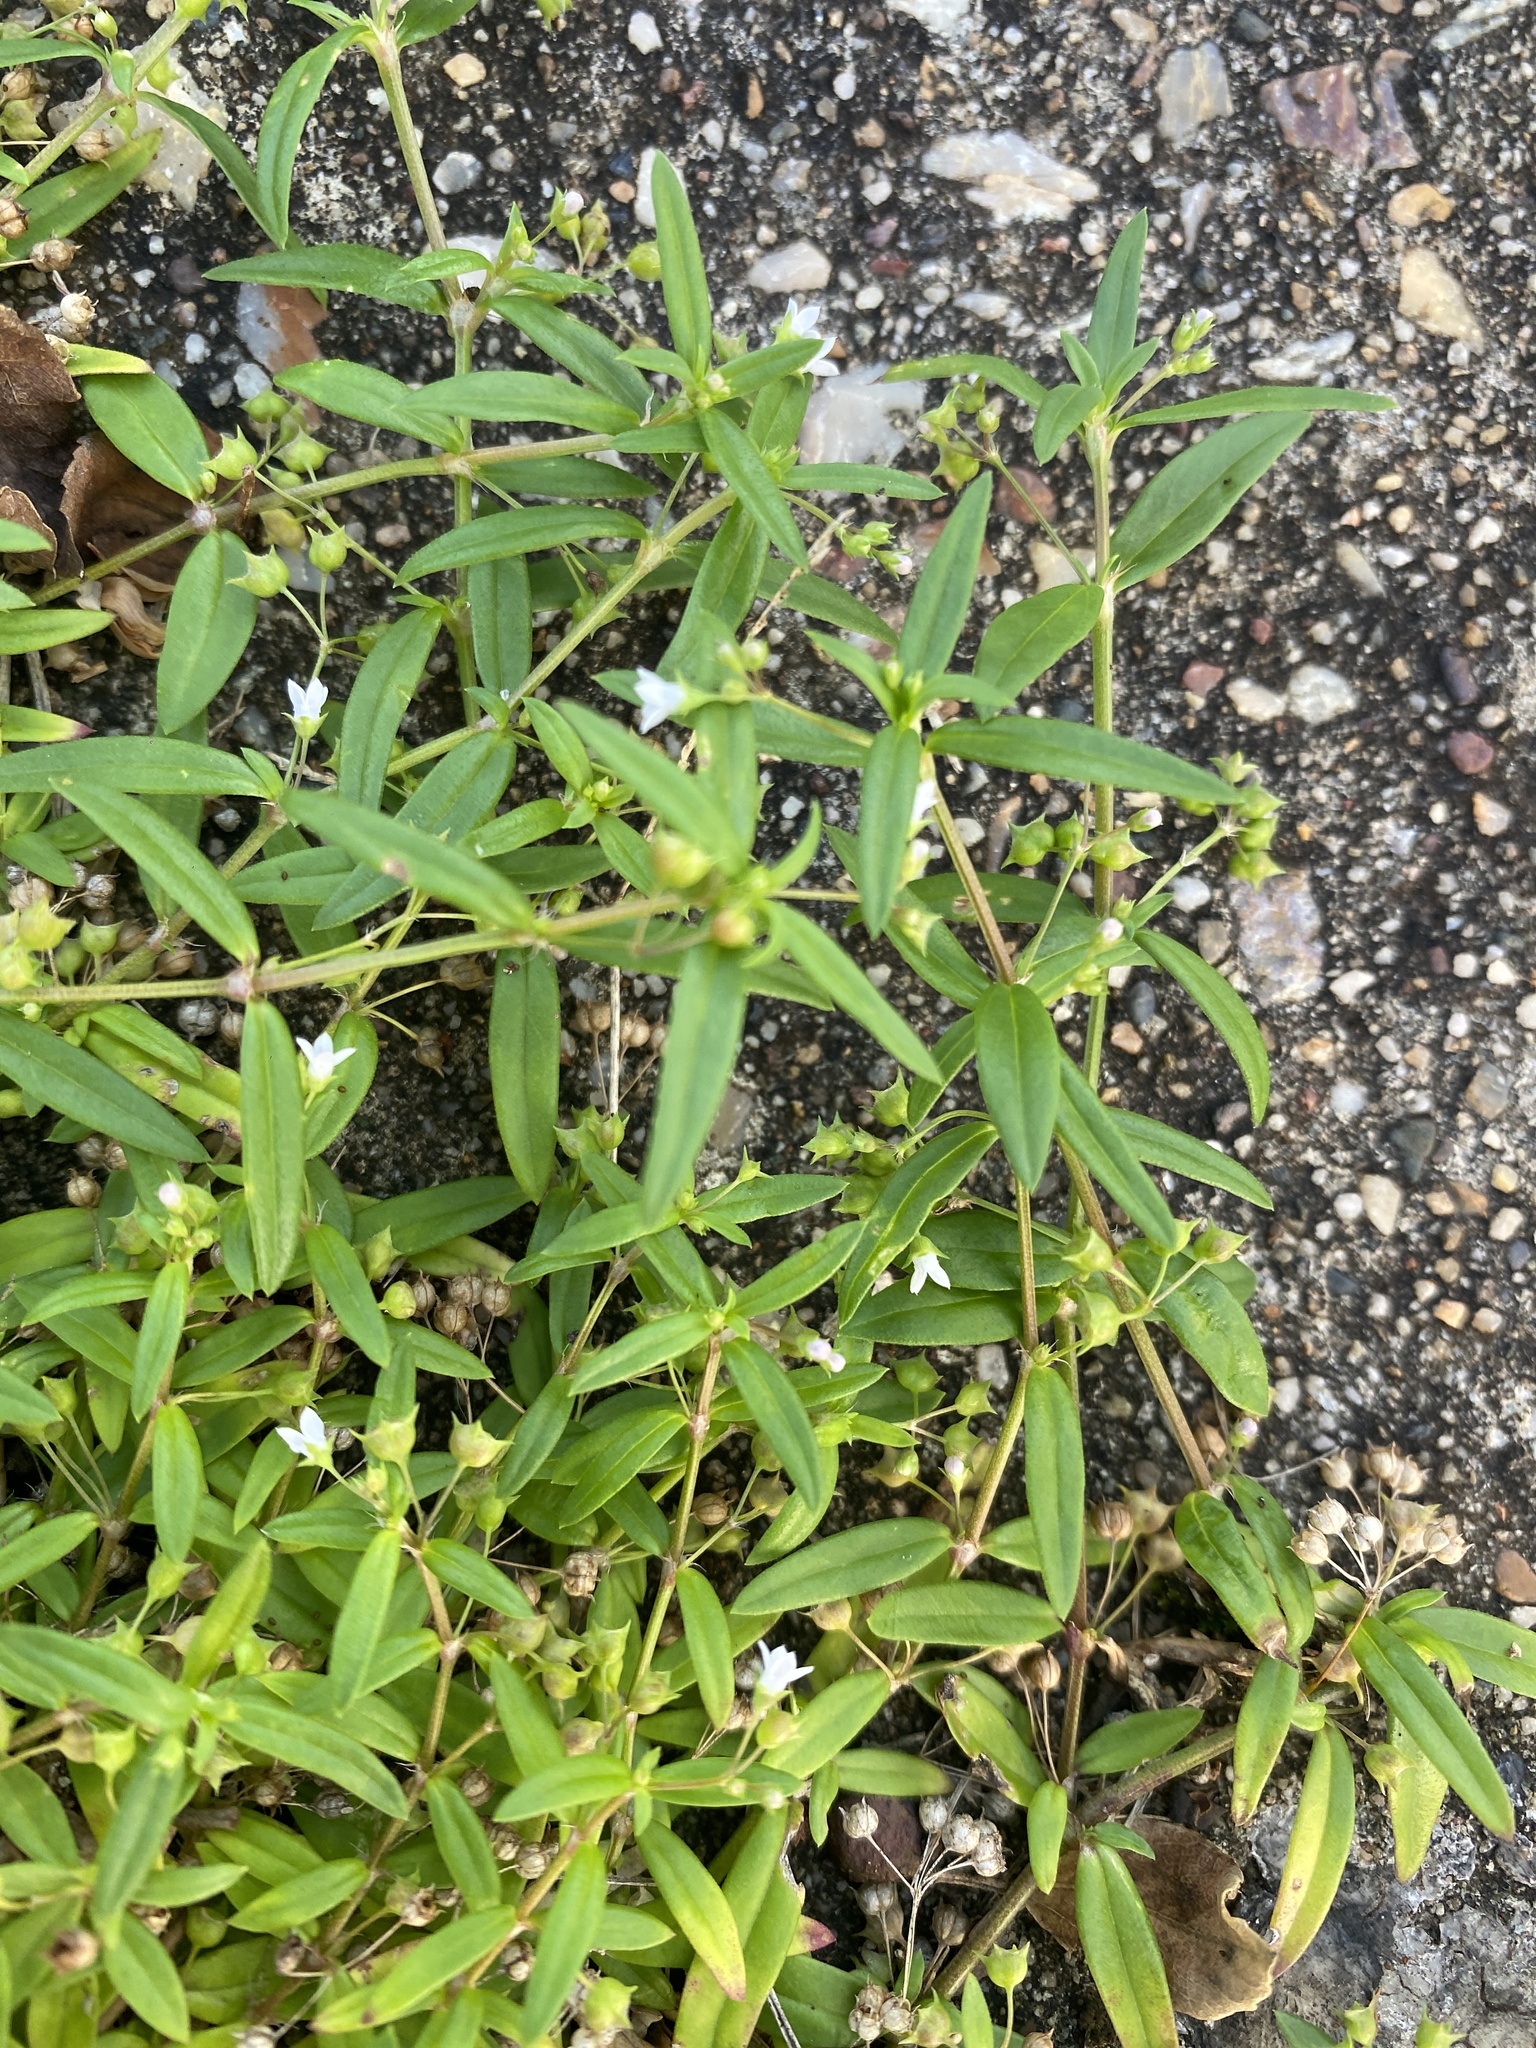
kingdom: Plantae
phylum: Tracheophyta
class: Magnoliopsida
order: Gentianales
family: Rubiaceae
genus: Oldenlandia
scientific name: Oldenlandia corymbosa
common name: Flat-top mille graines
